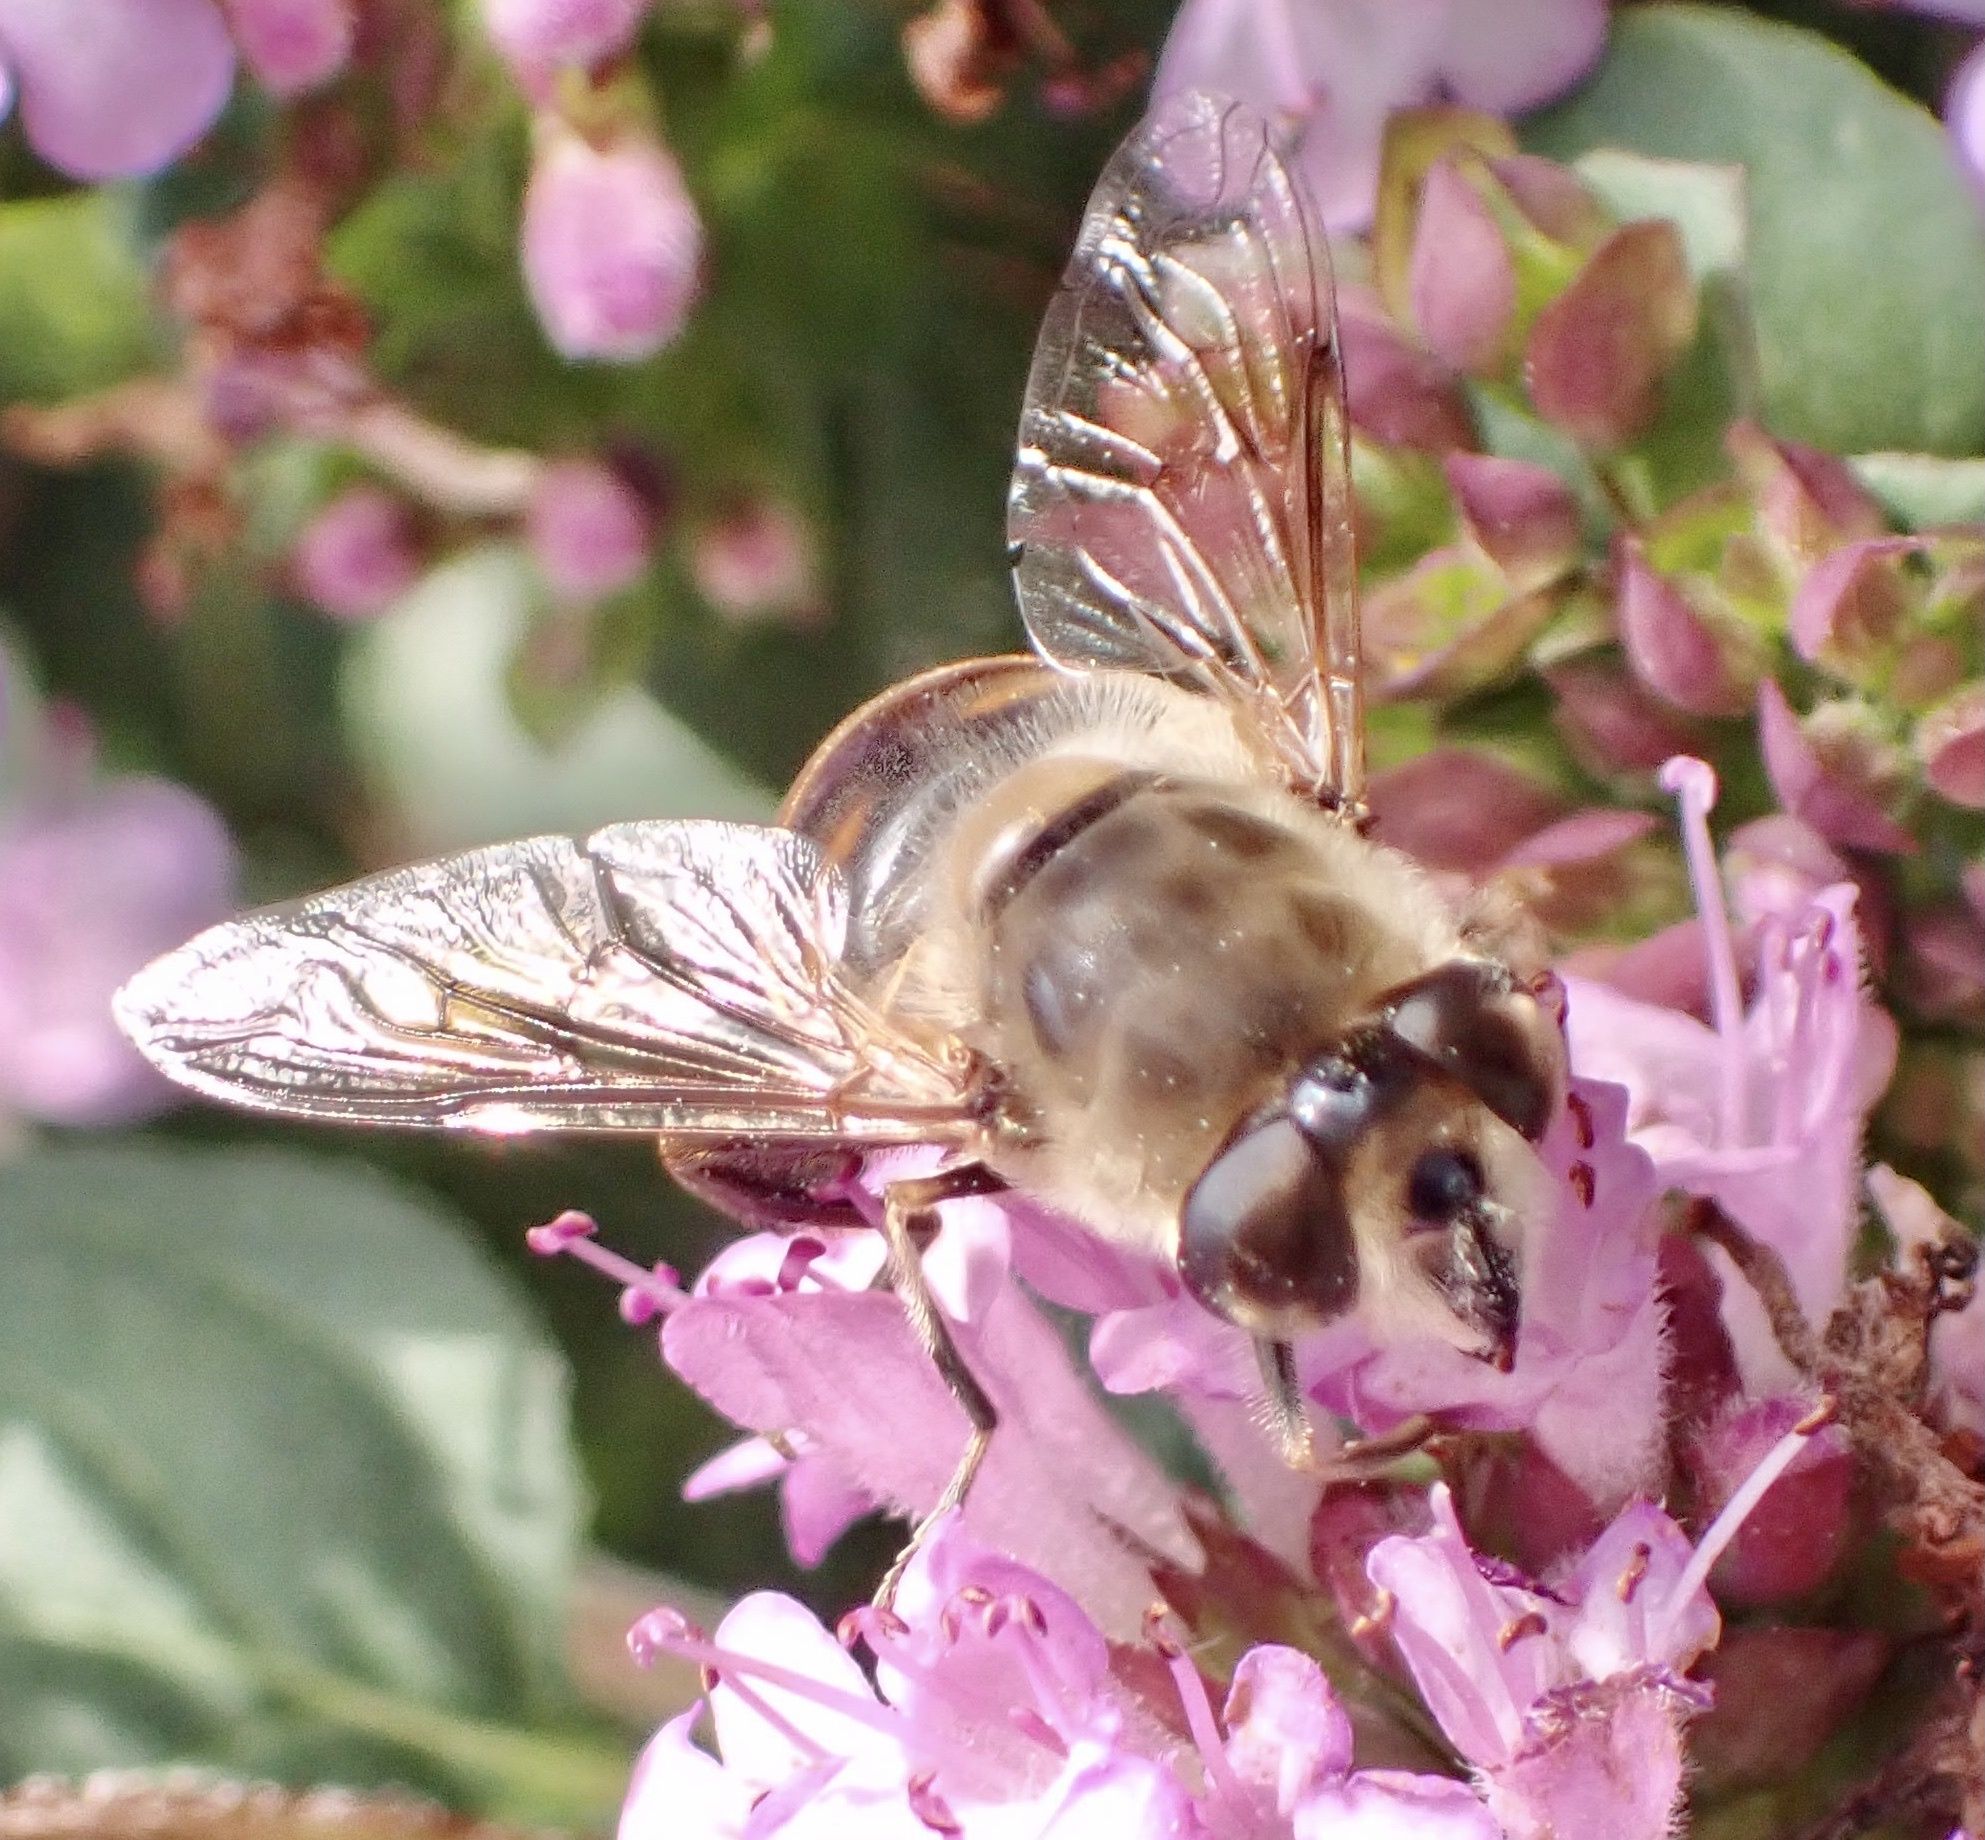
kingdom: Animalia
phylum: Arthropoda
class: Insecta
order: Diptera
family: Syrphidae
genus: Eristalis
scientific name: Eristalis tenax
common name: Drone fly
